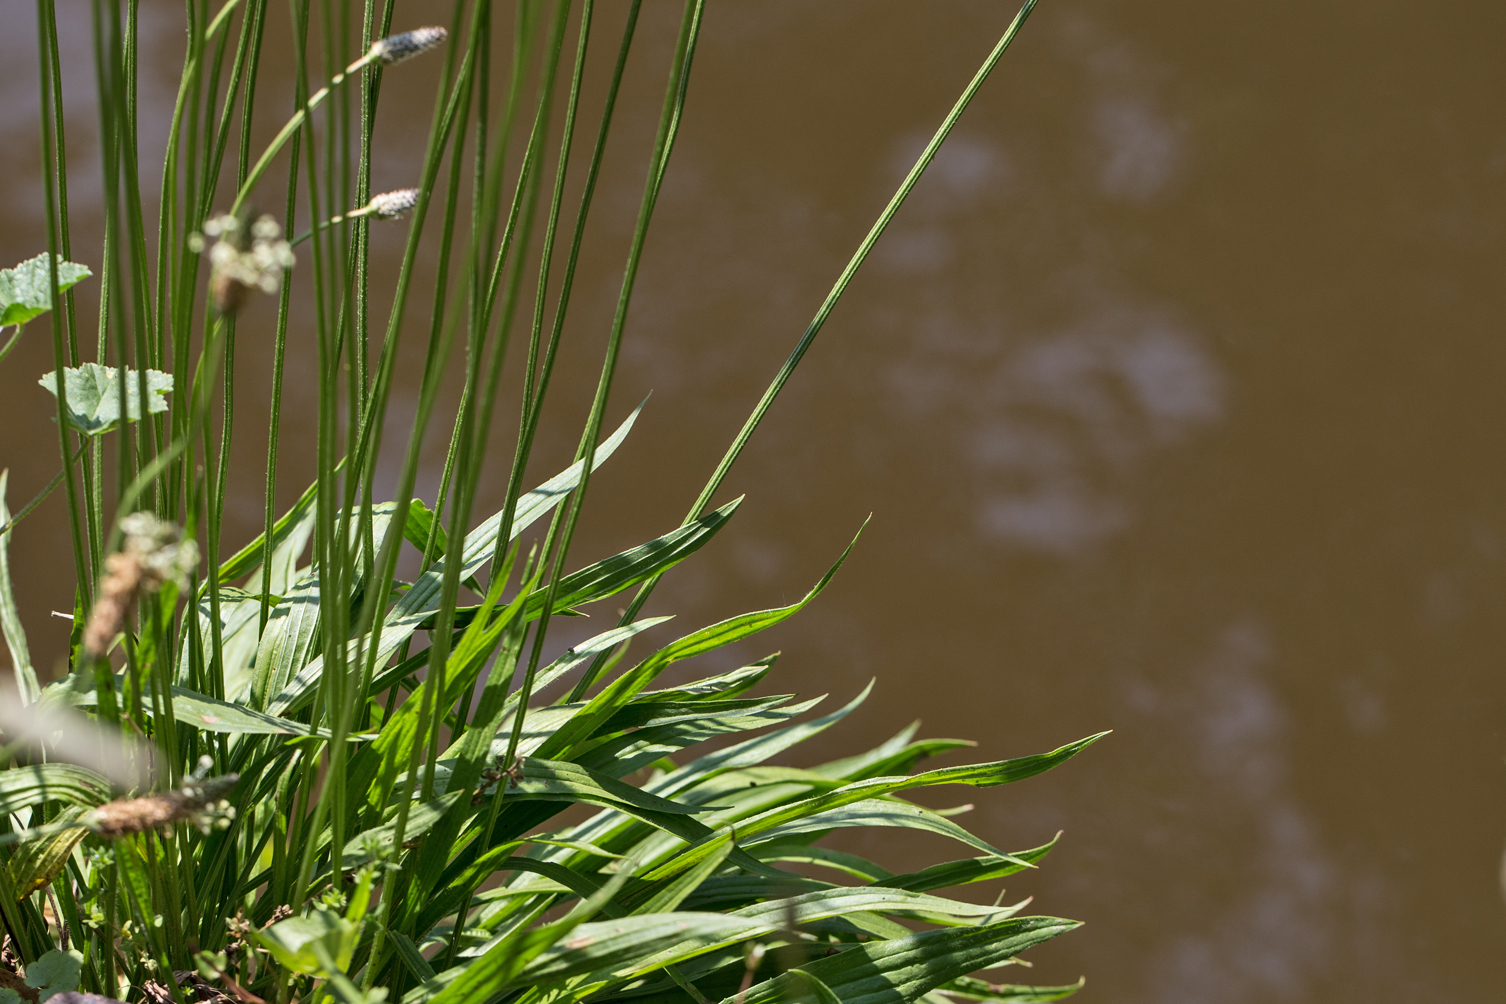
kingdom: Plantae
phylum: Tracheophyta
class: Magnoliopsida
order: Lamiales
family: Plantaginaceae
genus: Plantago
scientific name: Plantago lanceolata
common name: Ribwort plantain
